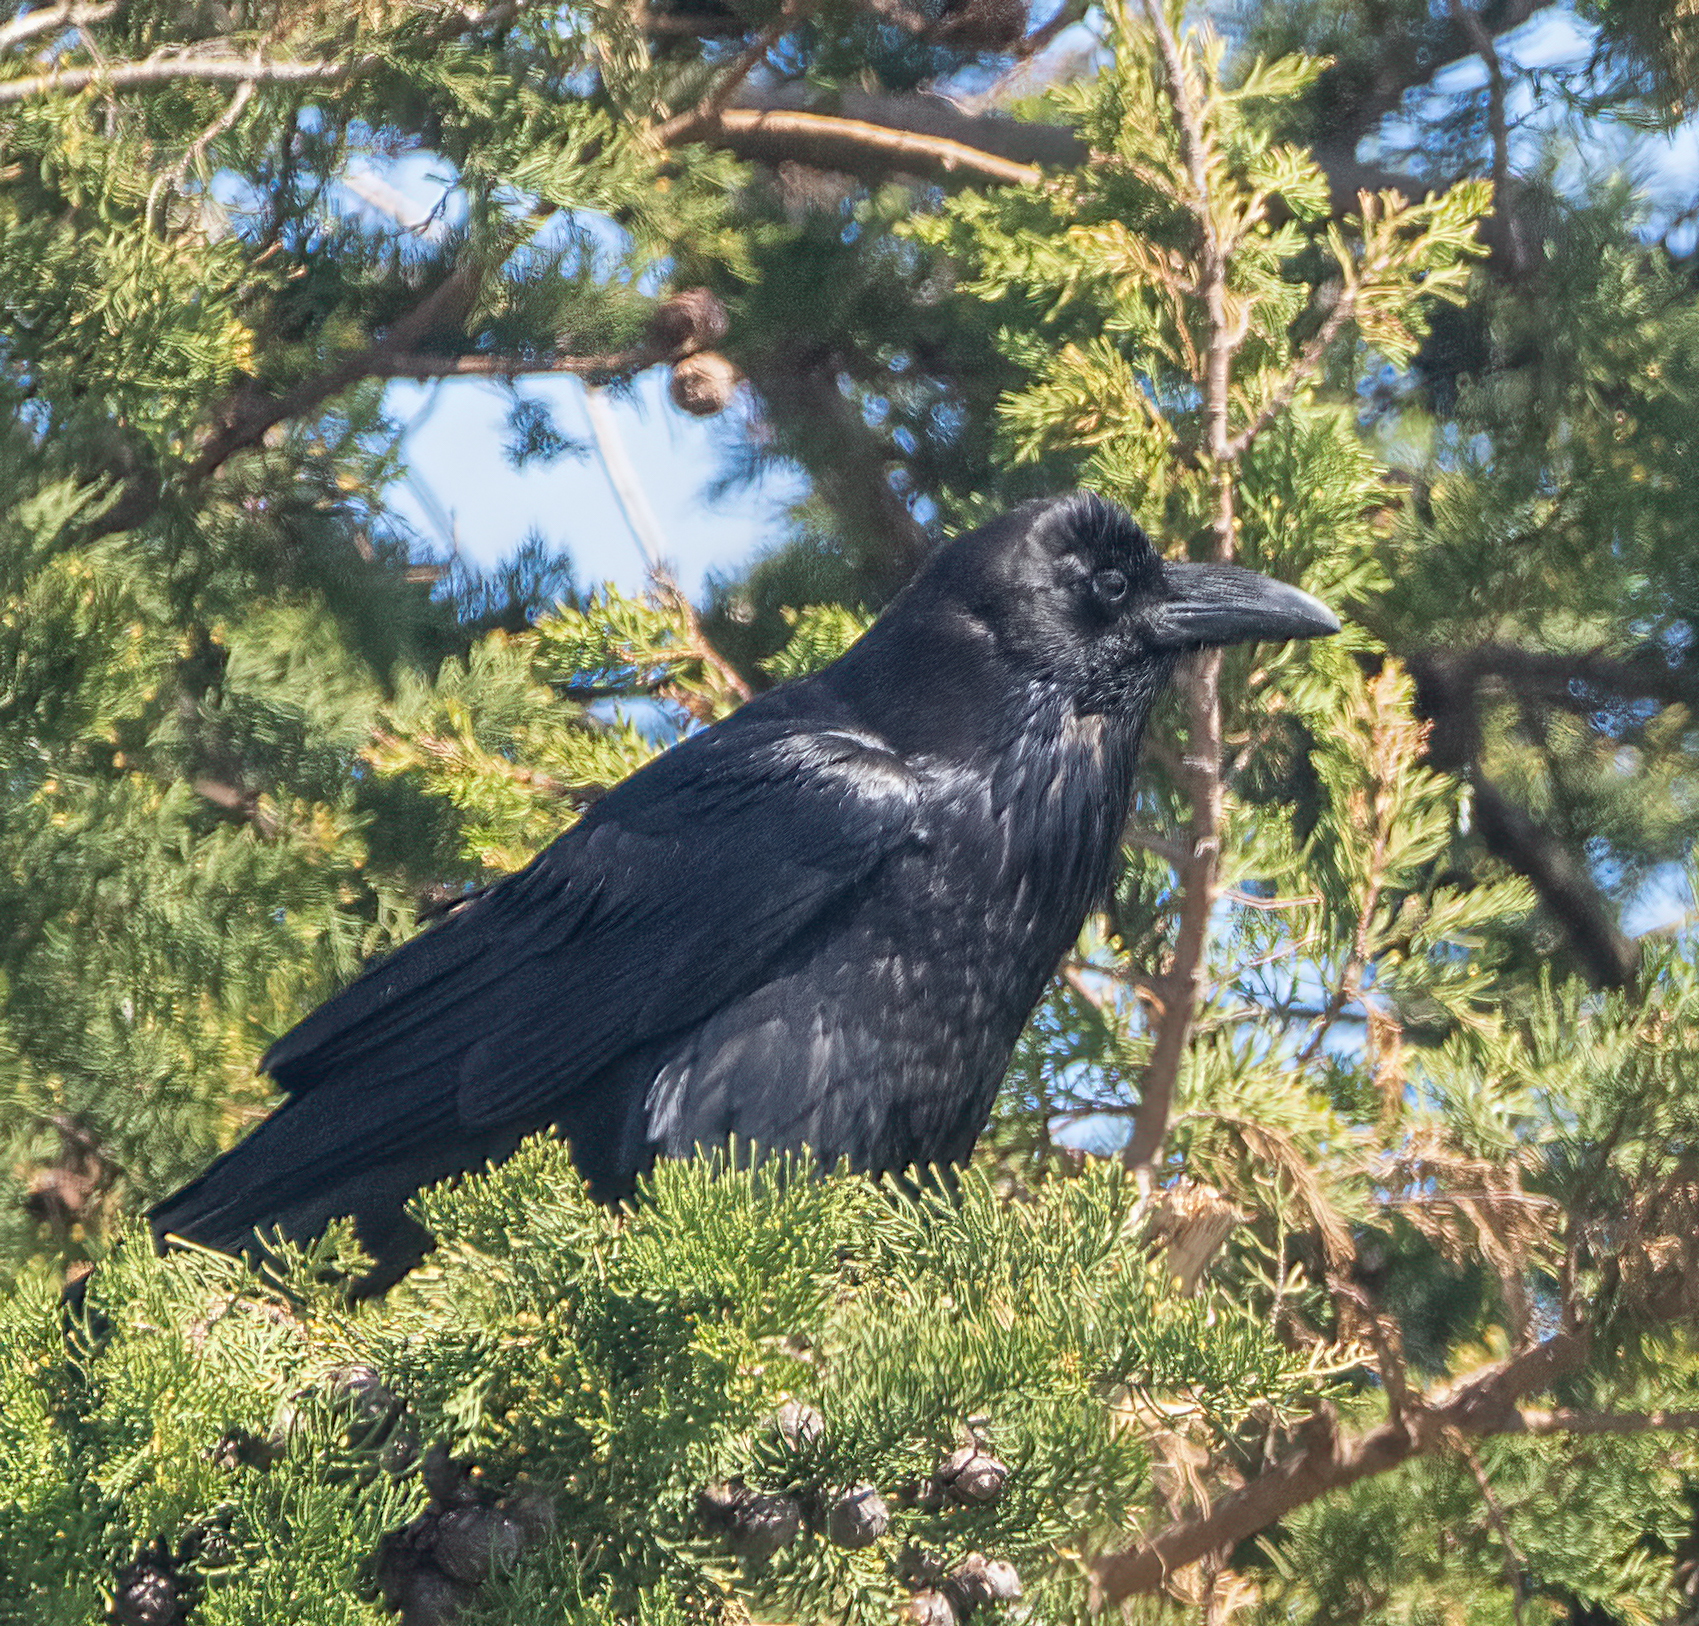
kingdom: Animalia
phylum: Chordata
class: Aves
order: Passeriformes
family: Corvidae
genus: Corvus
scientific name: Corvus corax
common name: Common raven
